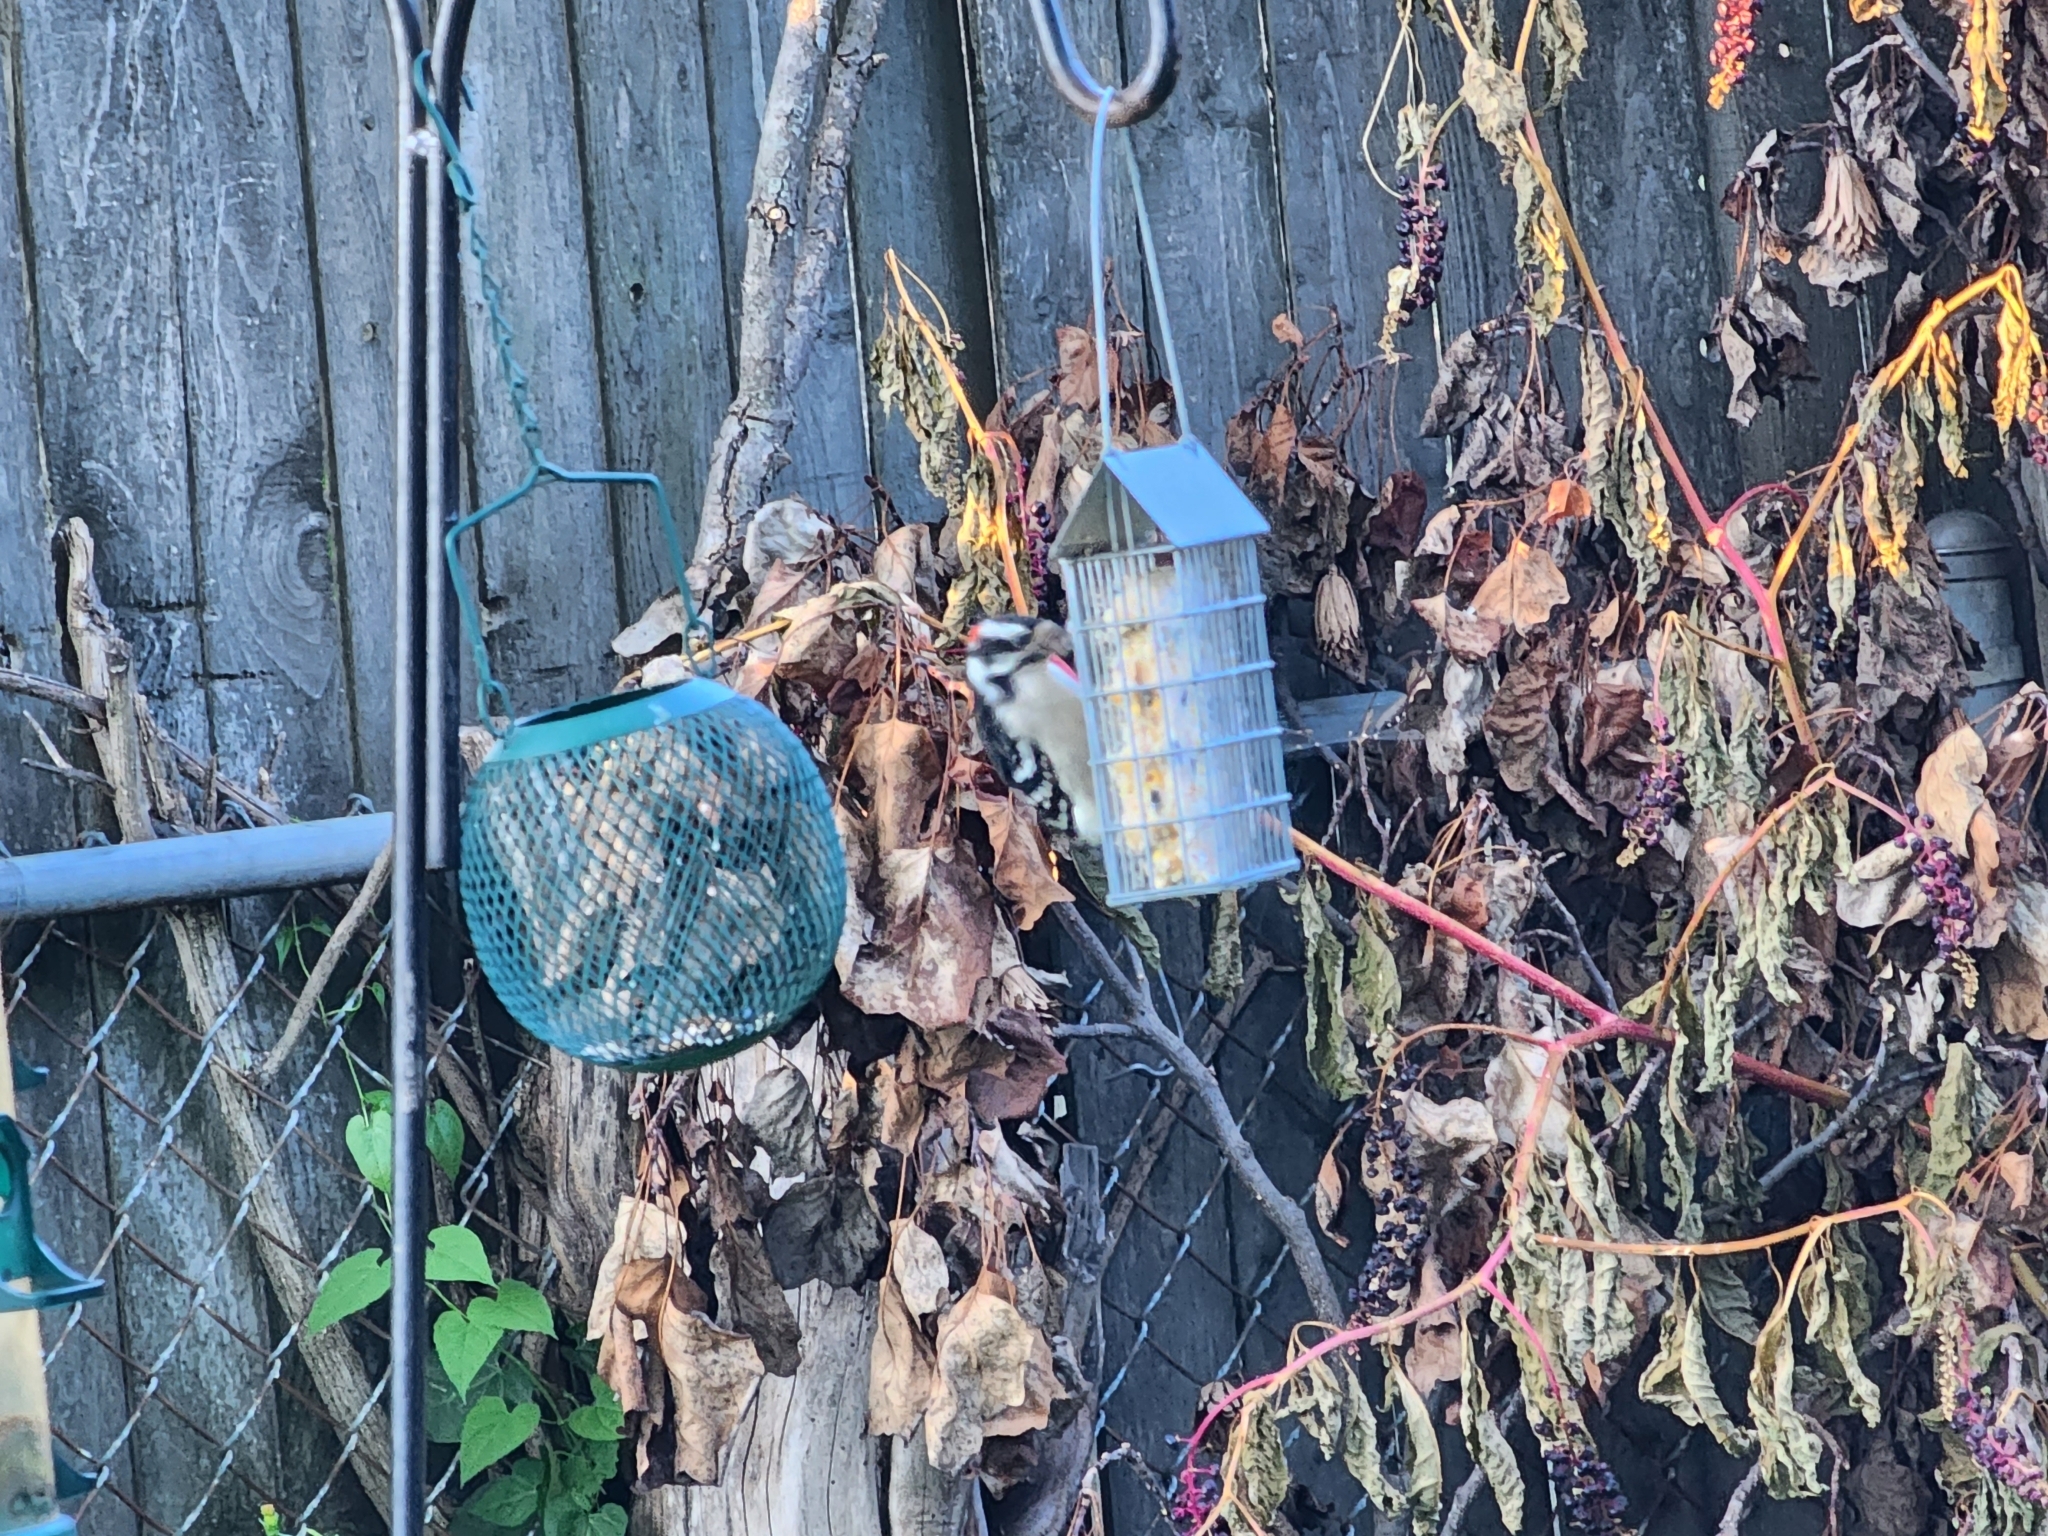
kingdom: Animalia
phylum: Chordata
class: Aves
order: Piciformes
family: Picidae
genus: Dryobates
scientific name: Dryobates pubescens
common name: Downy woodpecker
